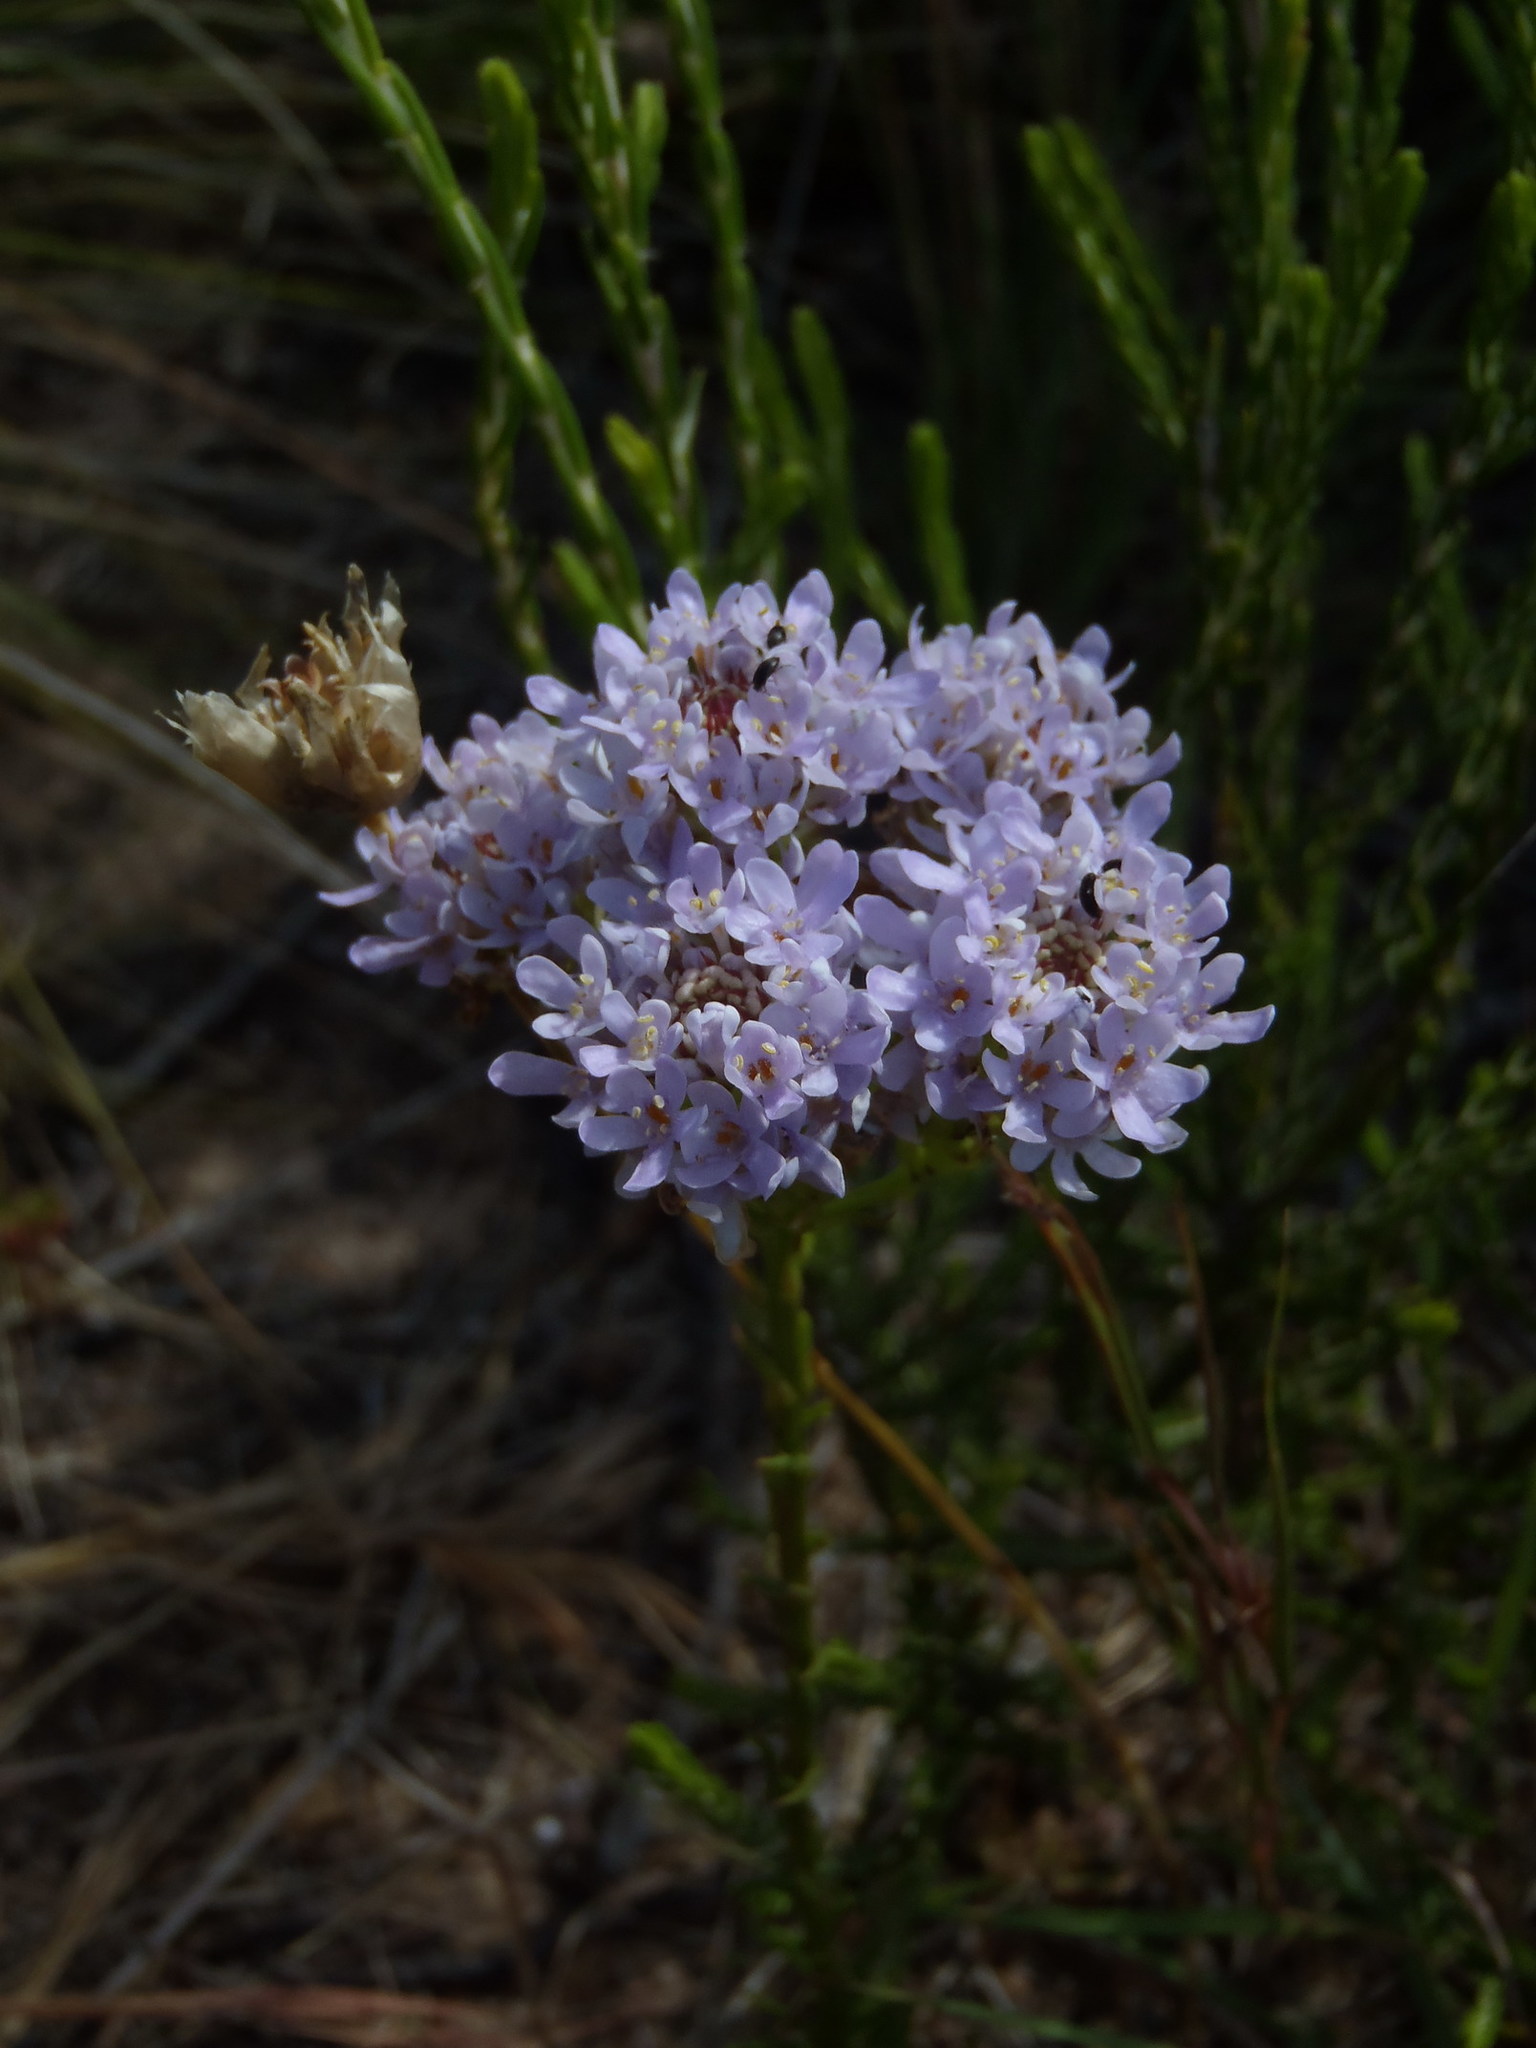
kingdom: Plantae
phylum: Tracheophyta
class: Magnoliopsida
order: Lamiales
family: Scrophulariaceae
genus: Pseudoselago
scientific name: Pseudoselago spuria
